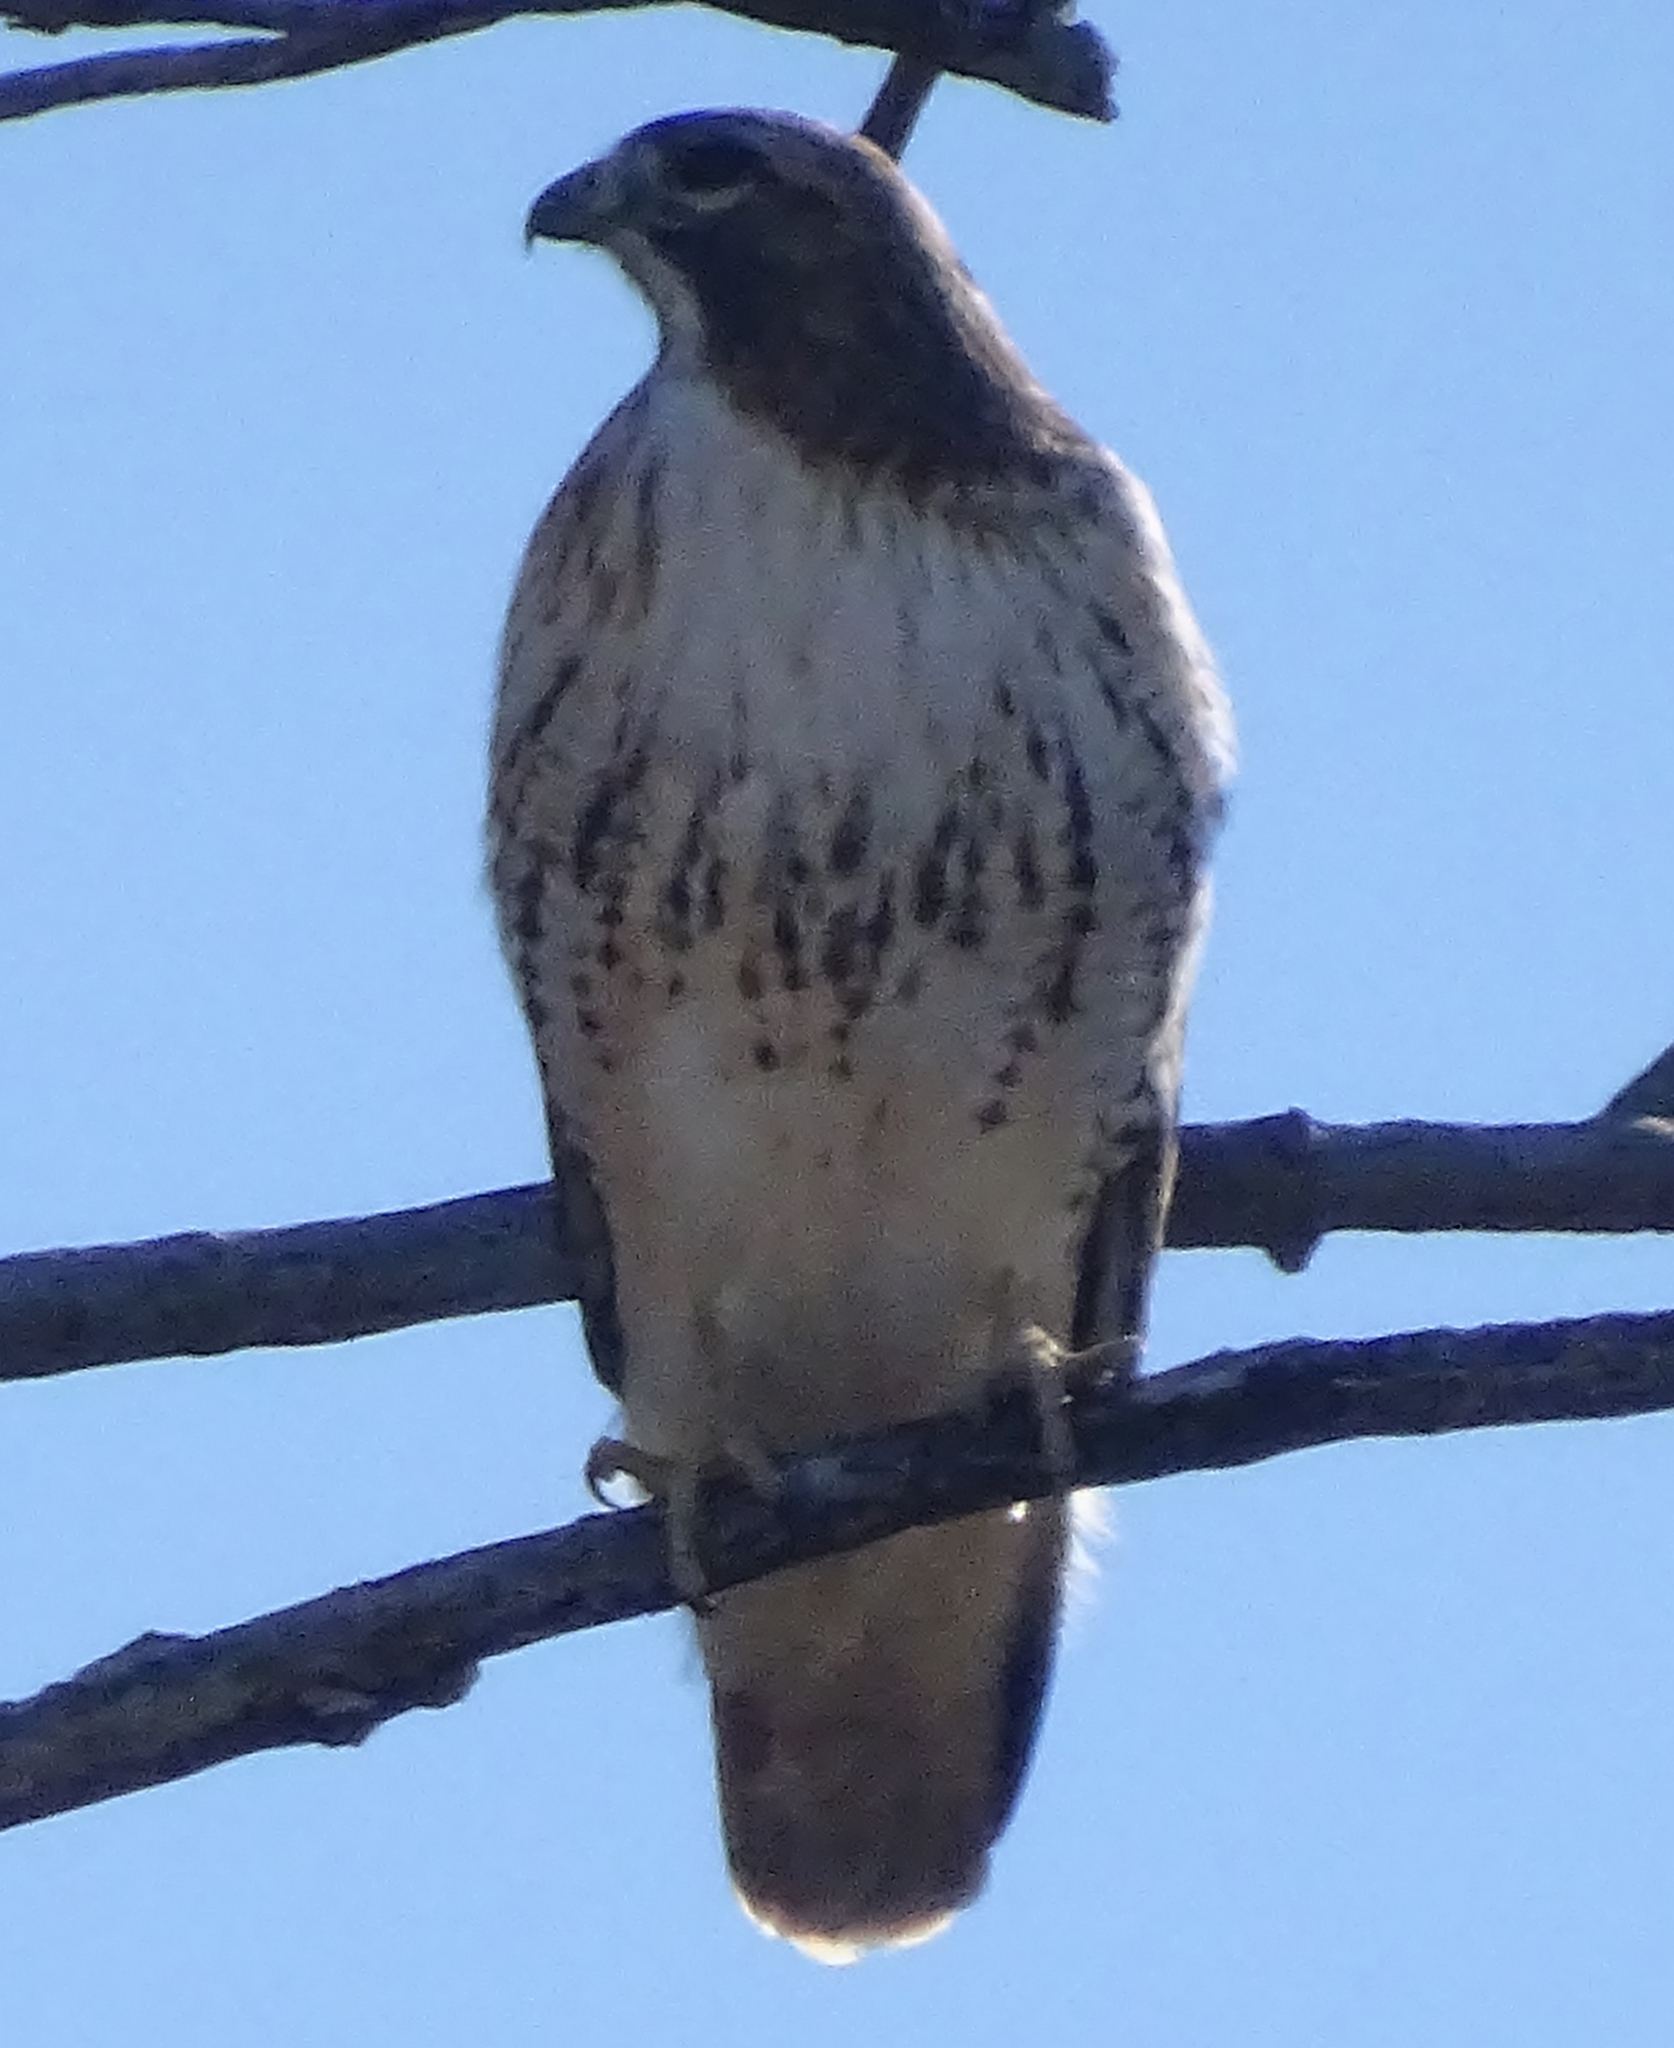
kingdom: Animalia
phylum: Chordata
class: Aves
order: Accipitriformes
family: Accipitridae
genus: Buteo
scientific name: Buteo jamaicensis
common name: Red-tailed hawk
